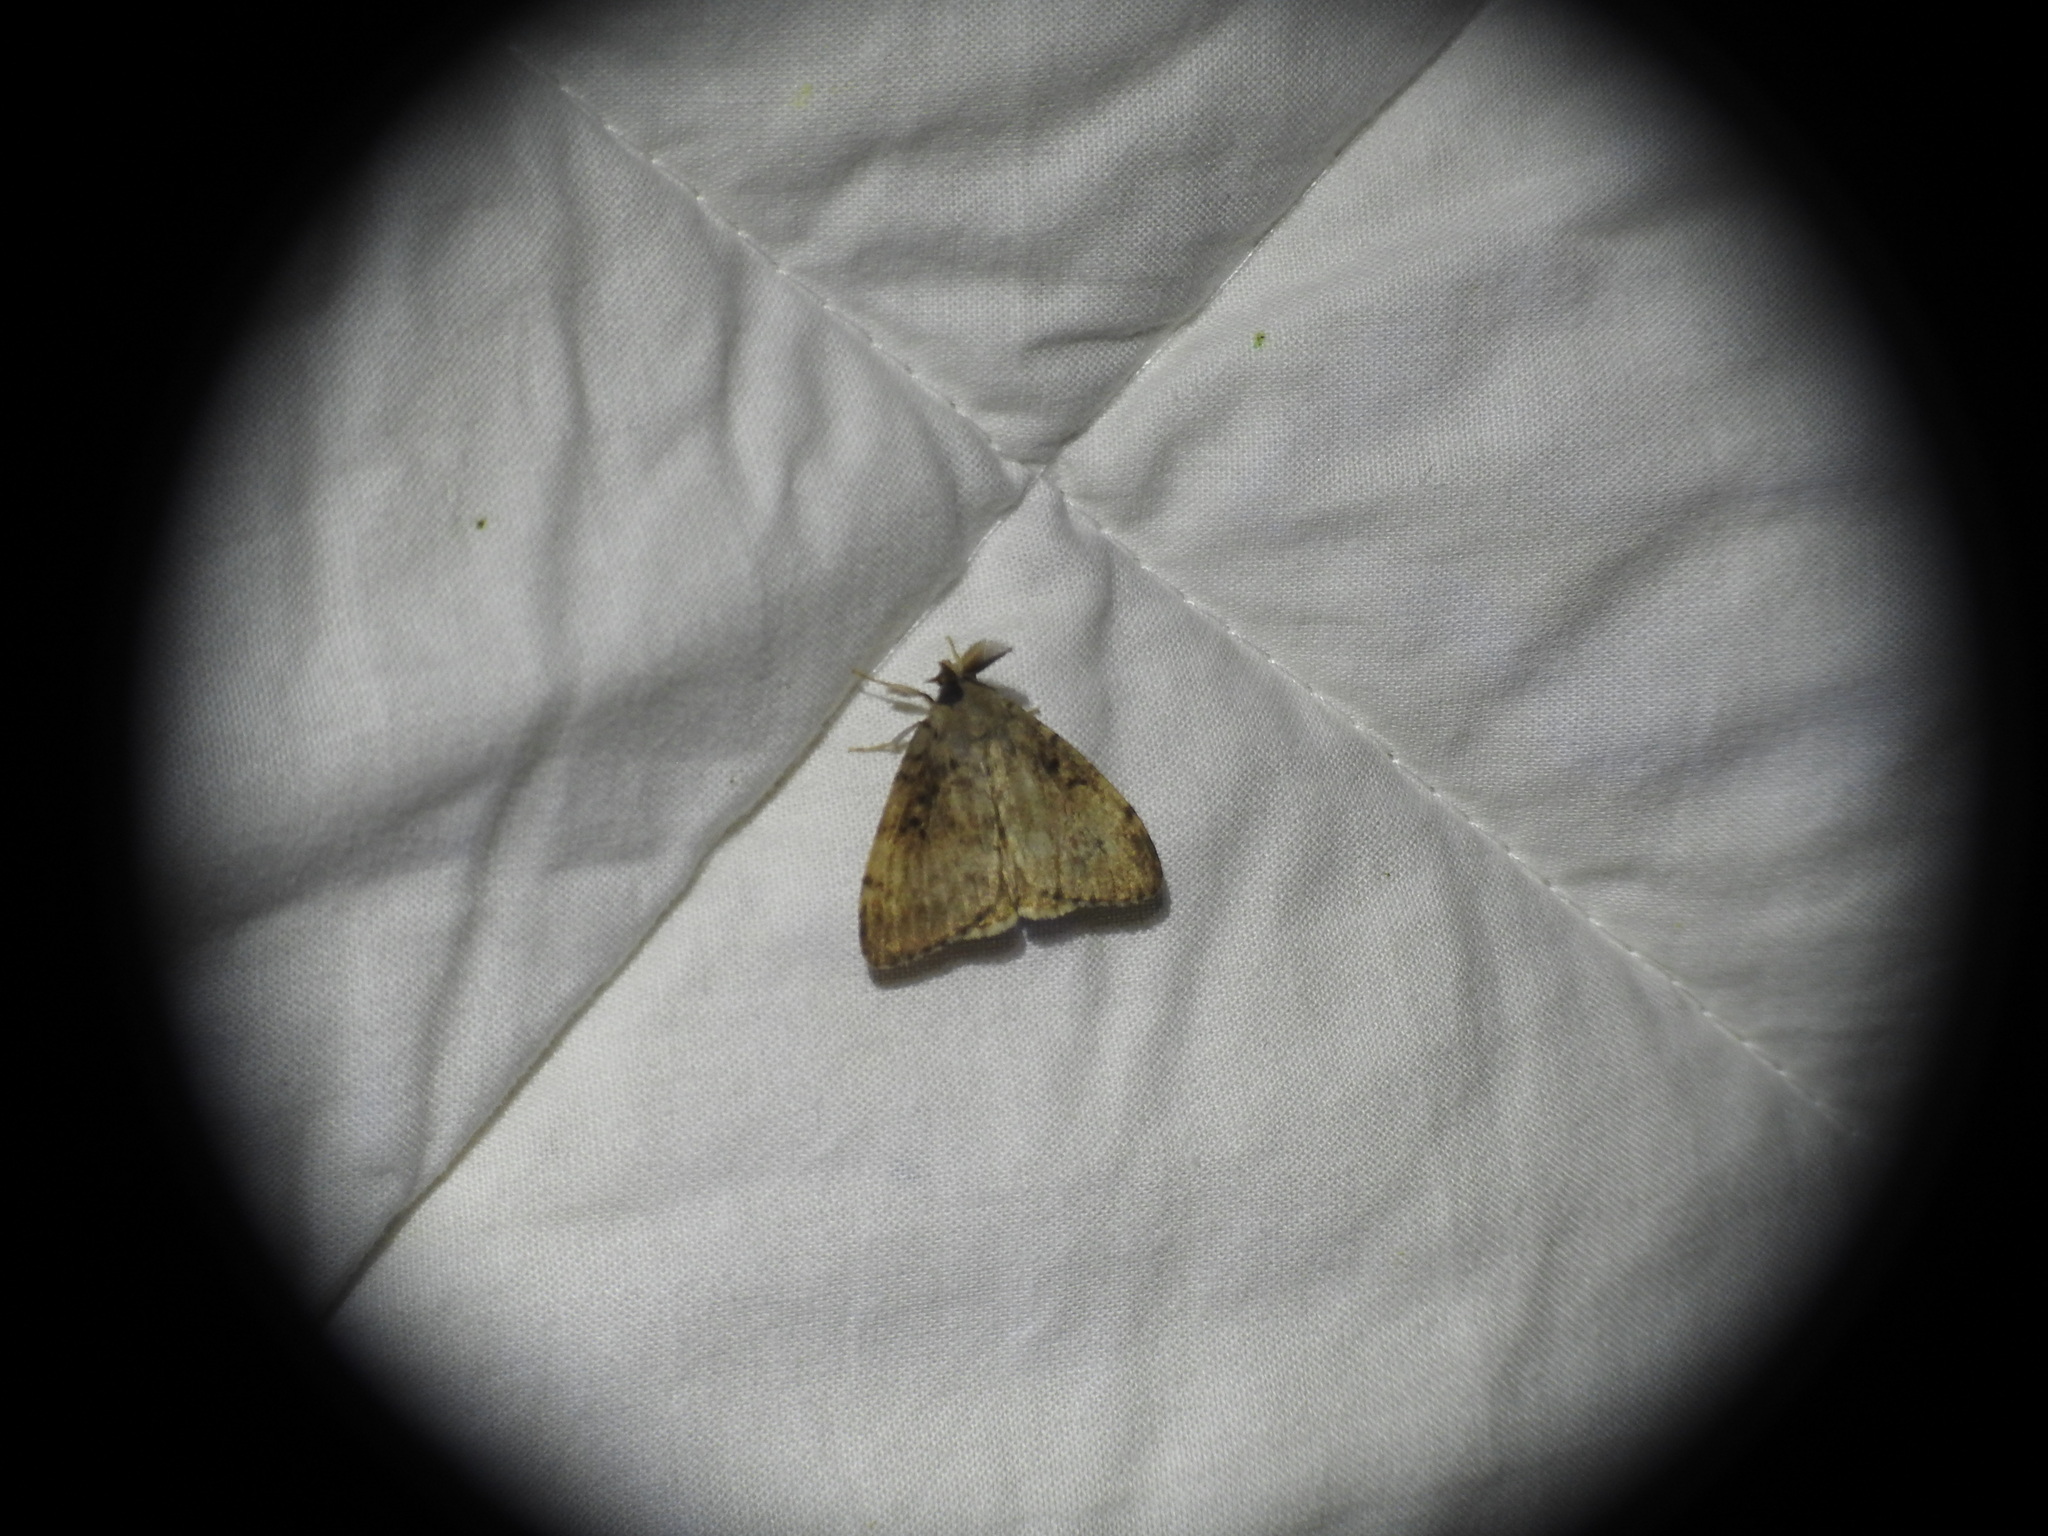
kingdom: Animalia
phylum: Arthropoda
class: Insecta
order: Lepidoptera
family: Erebidae
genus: Lymantria
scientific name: Lymantria dispar
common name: Gypsy moth
